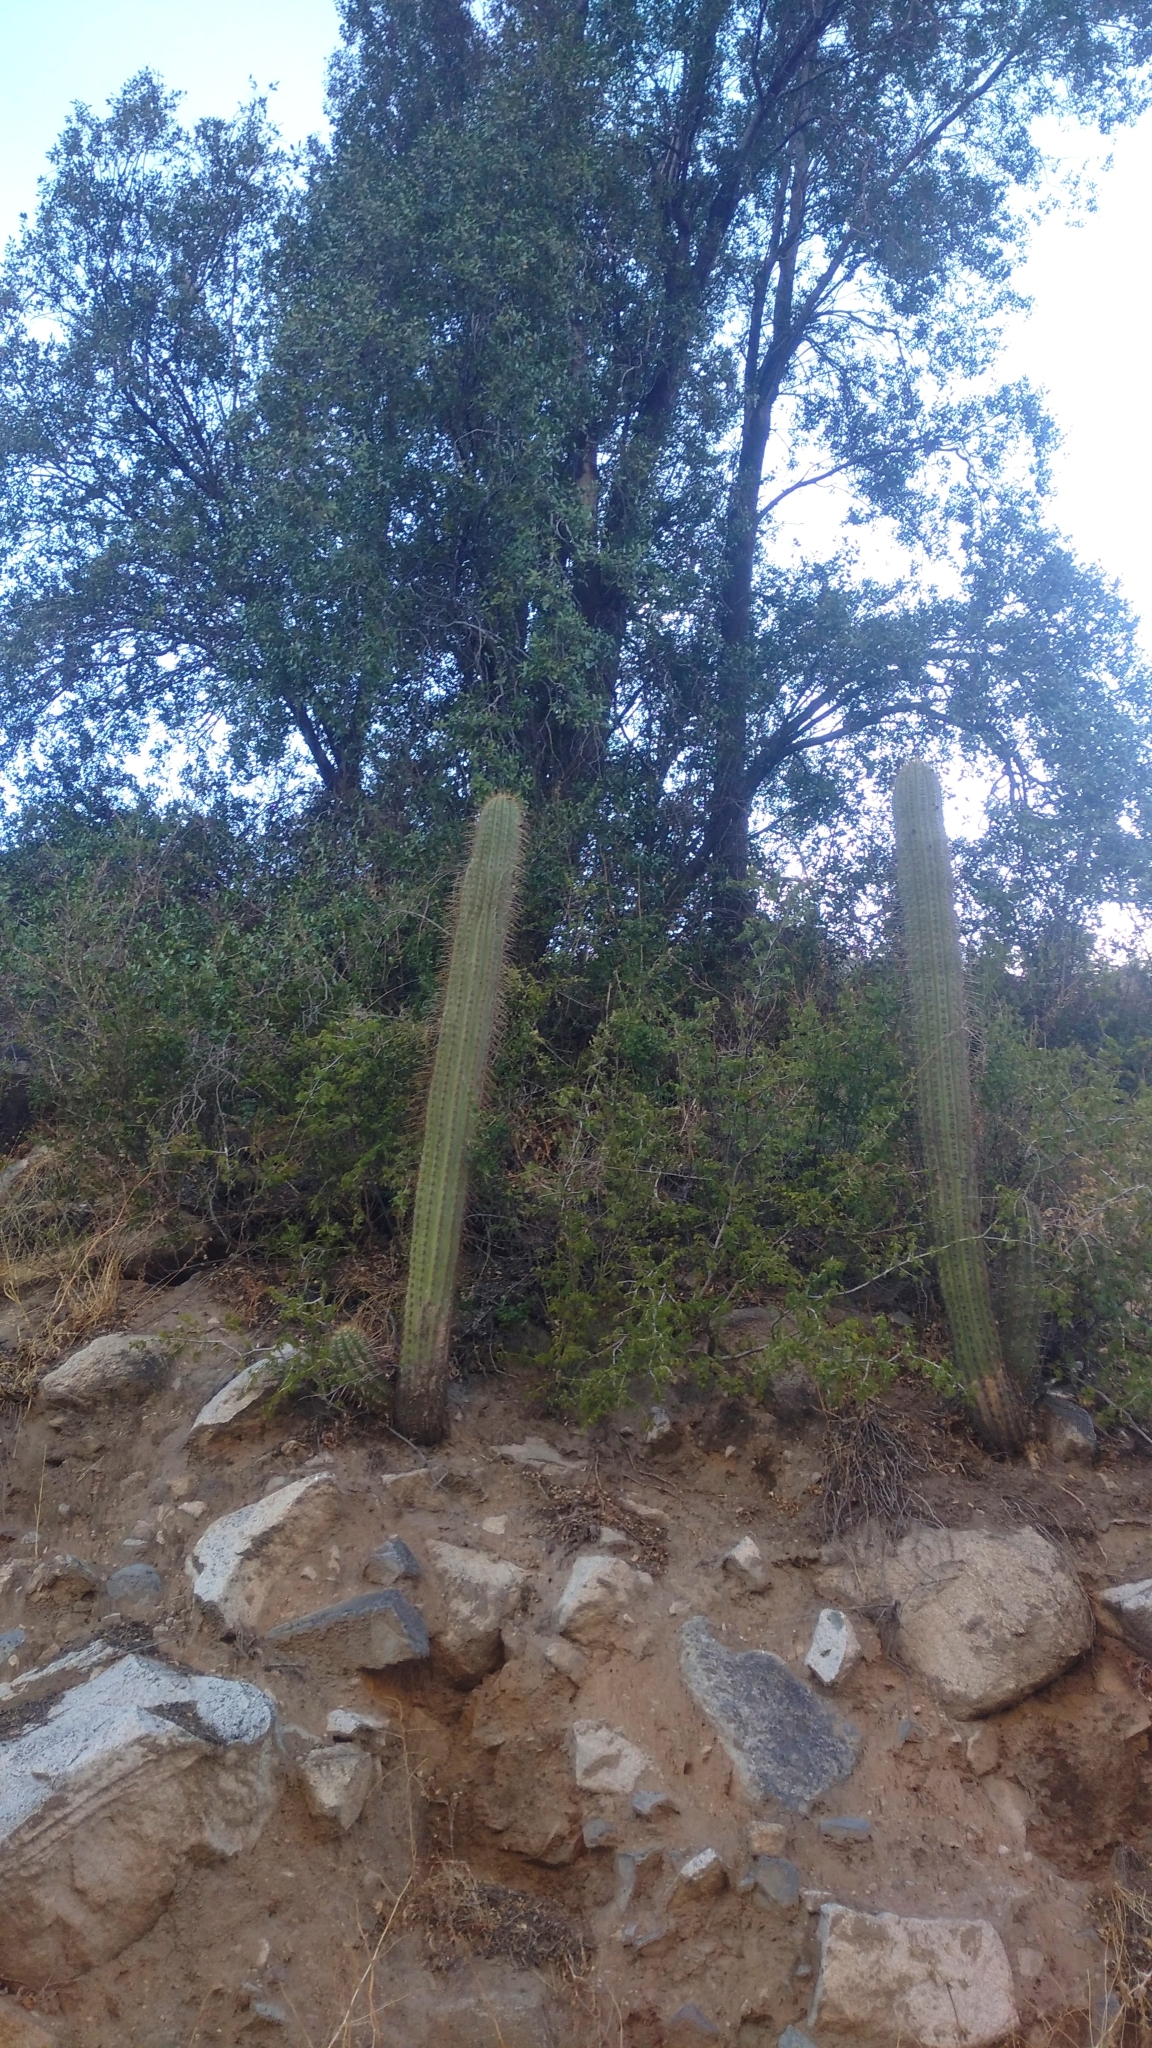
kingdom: Plantae
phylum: Tracheophyta
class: Magnoliopsida
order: Caryophyllales
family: Cactaceae
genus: Leucostele
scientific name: Leucostele chiloensis
